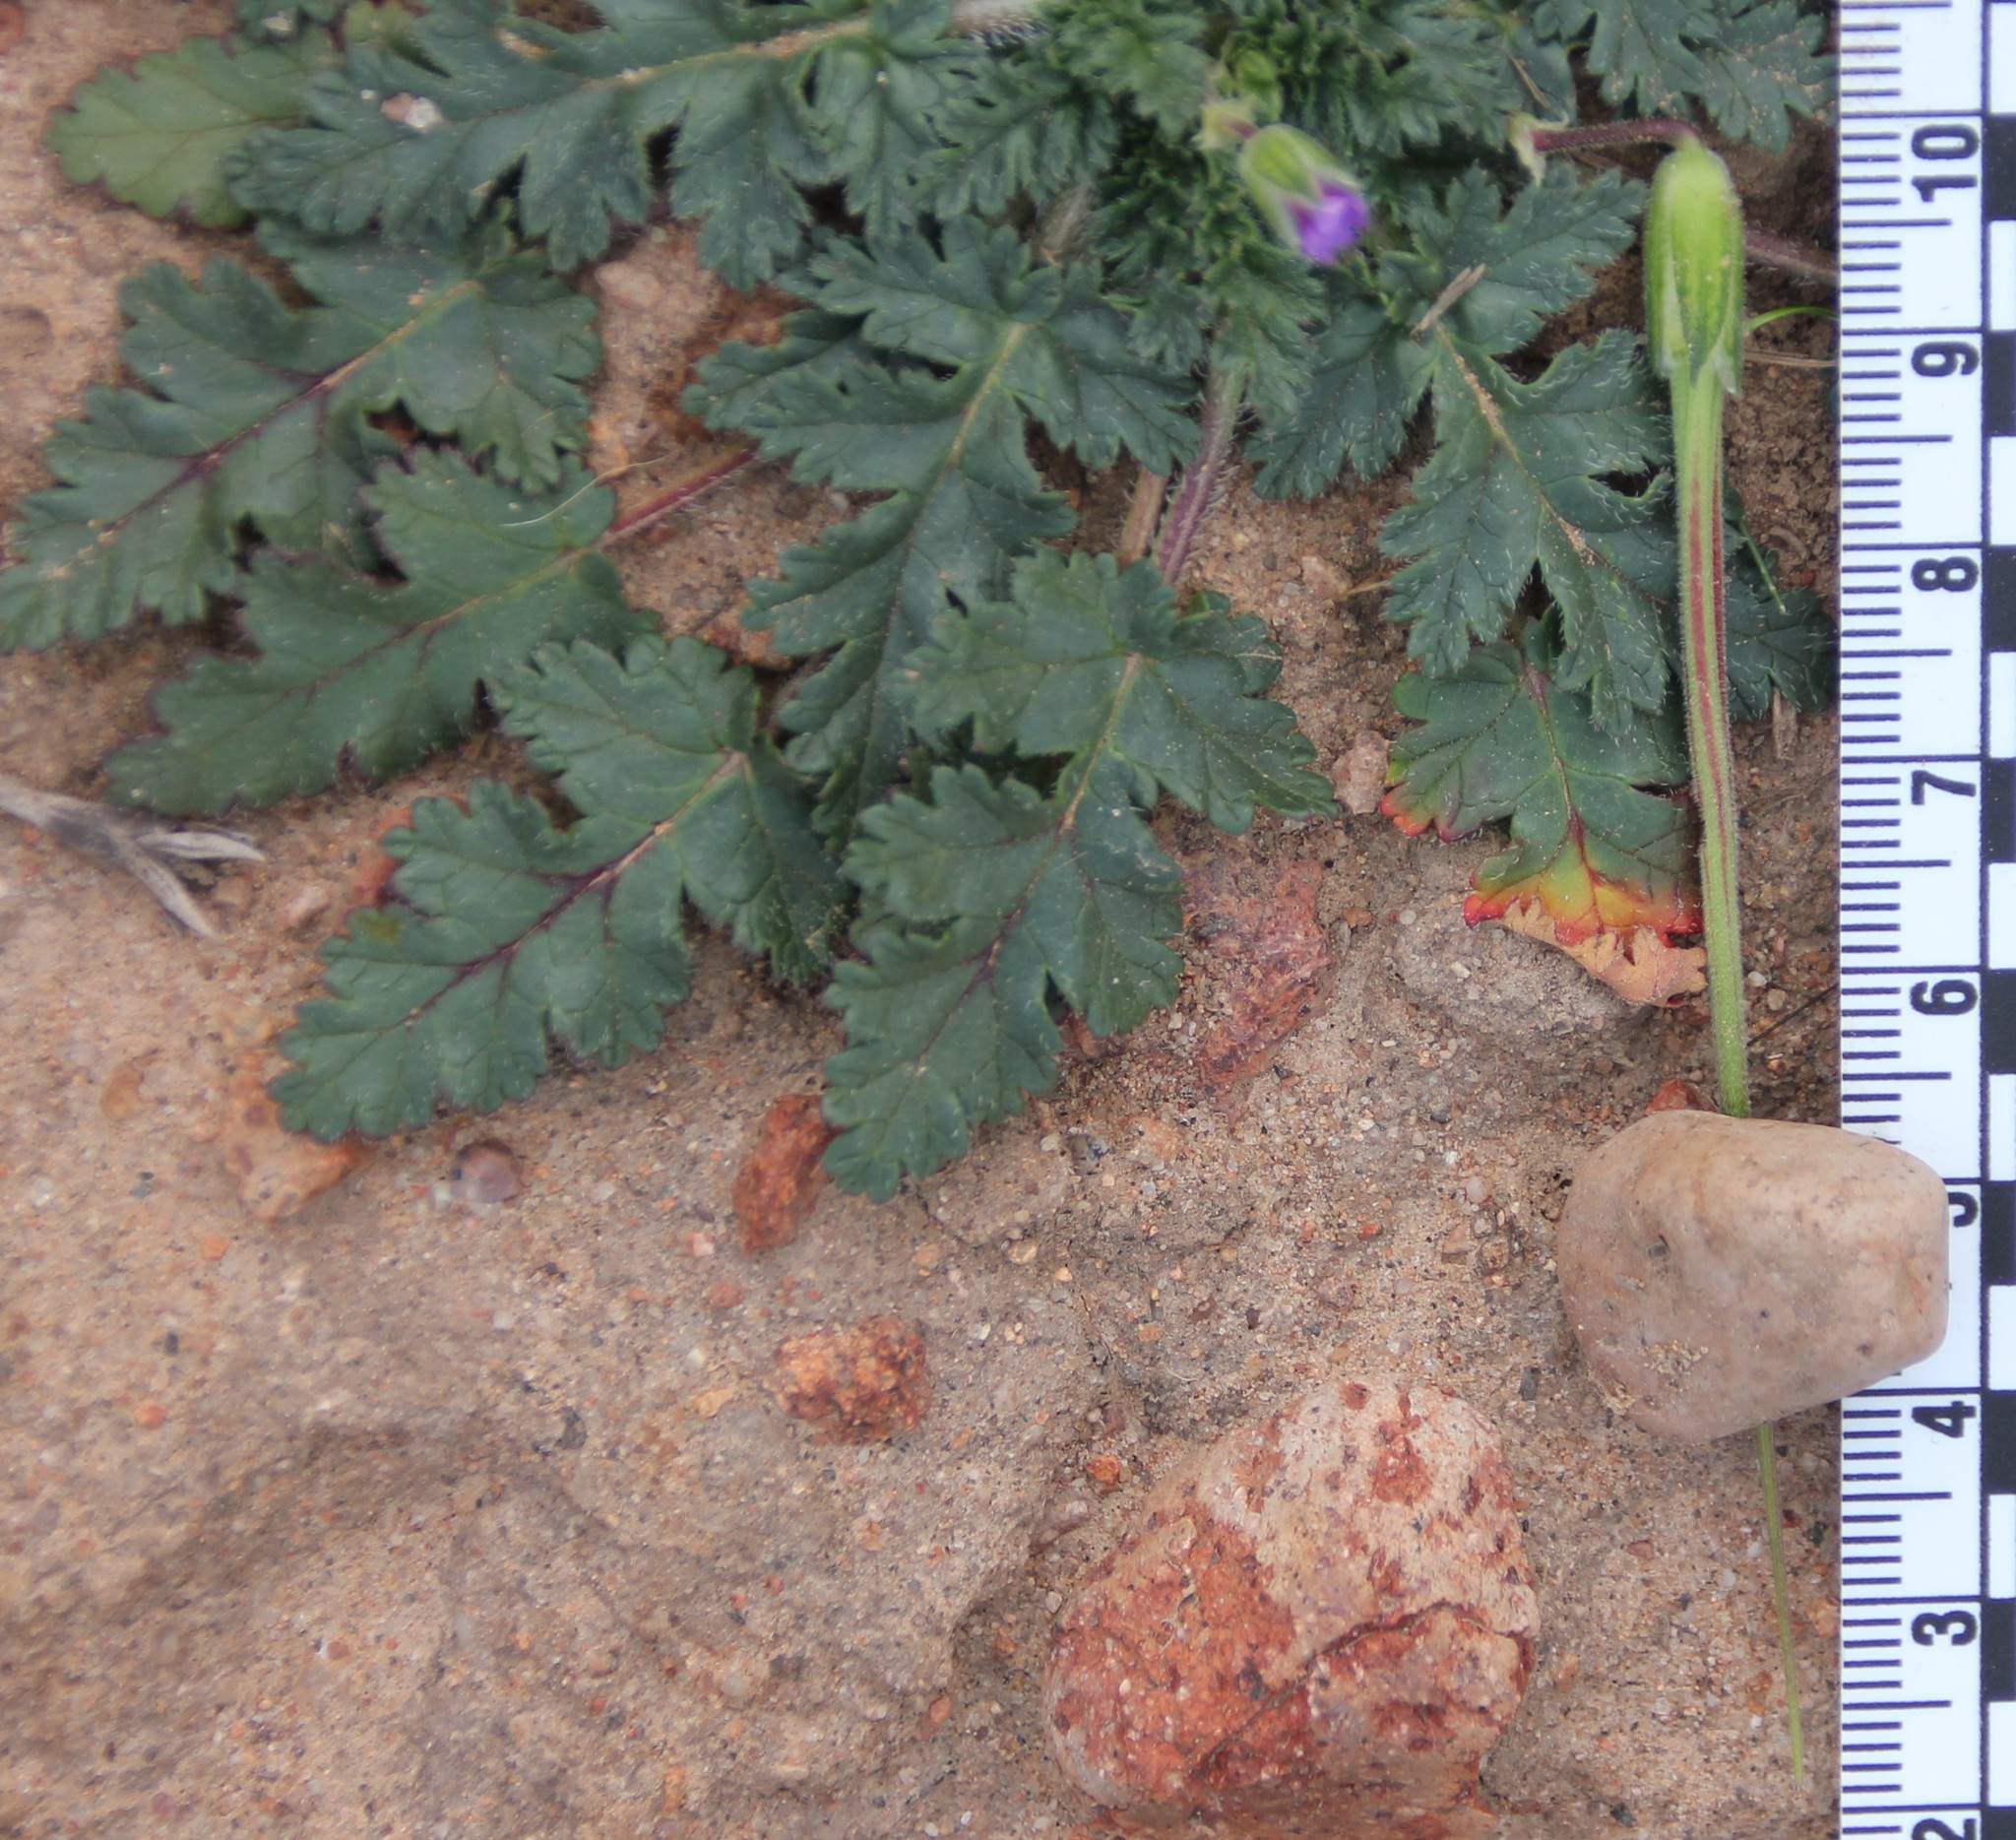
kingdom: Plantae
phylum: Tracheophyta
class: Magnoliopsida
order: Geraniales
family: Geraniaceae
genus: Erodium
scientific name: Erodium botrys
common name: Mediterranean stork's-bill
